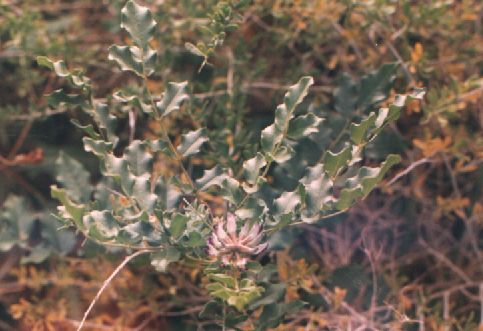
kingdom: Plantae
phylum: Tracheophyta
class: Magnoliopsida
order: Fabales
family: Fabaceae
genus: Glycyrrhiza
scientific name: Glycyrrhiza inflata
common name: Chinese licorice
